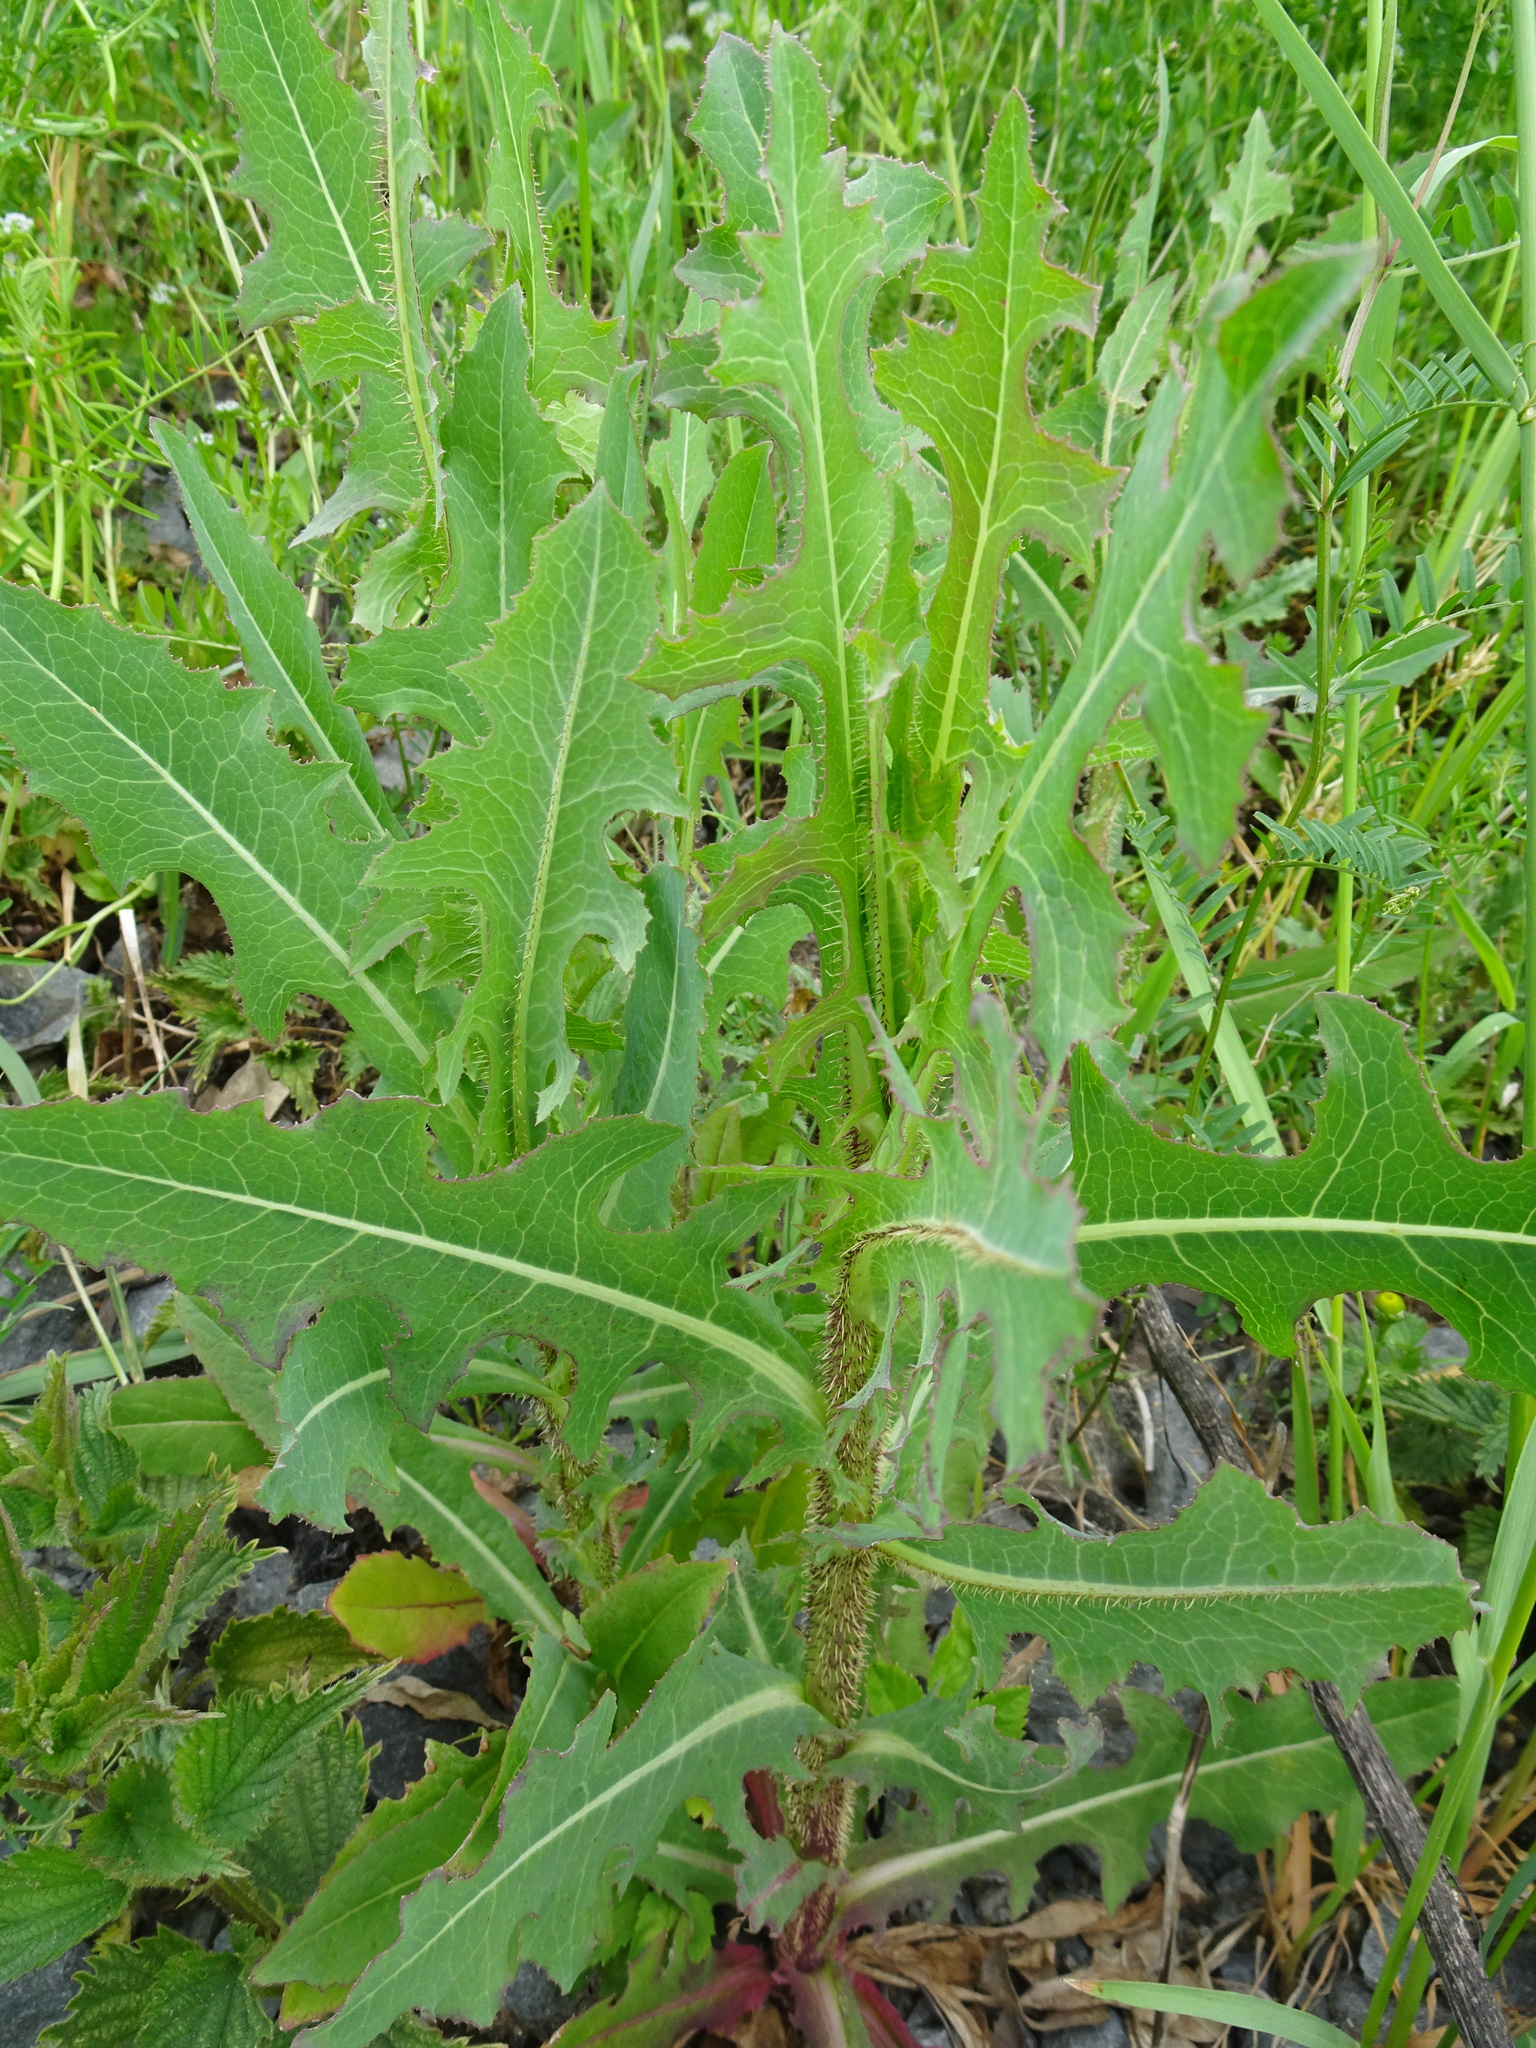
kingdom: Plantae
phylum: Tracheophyta
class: Magnoliopsida
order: Asterales
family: Asteraceae
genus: Lactuca
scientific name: Lactuca serriola
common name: Prickly lettuce
